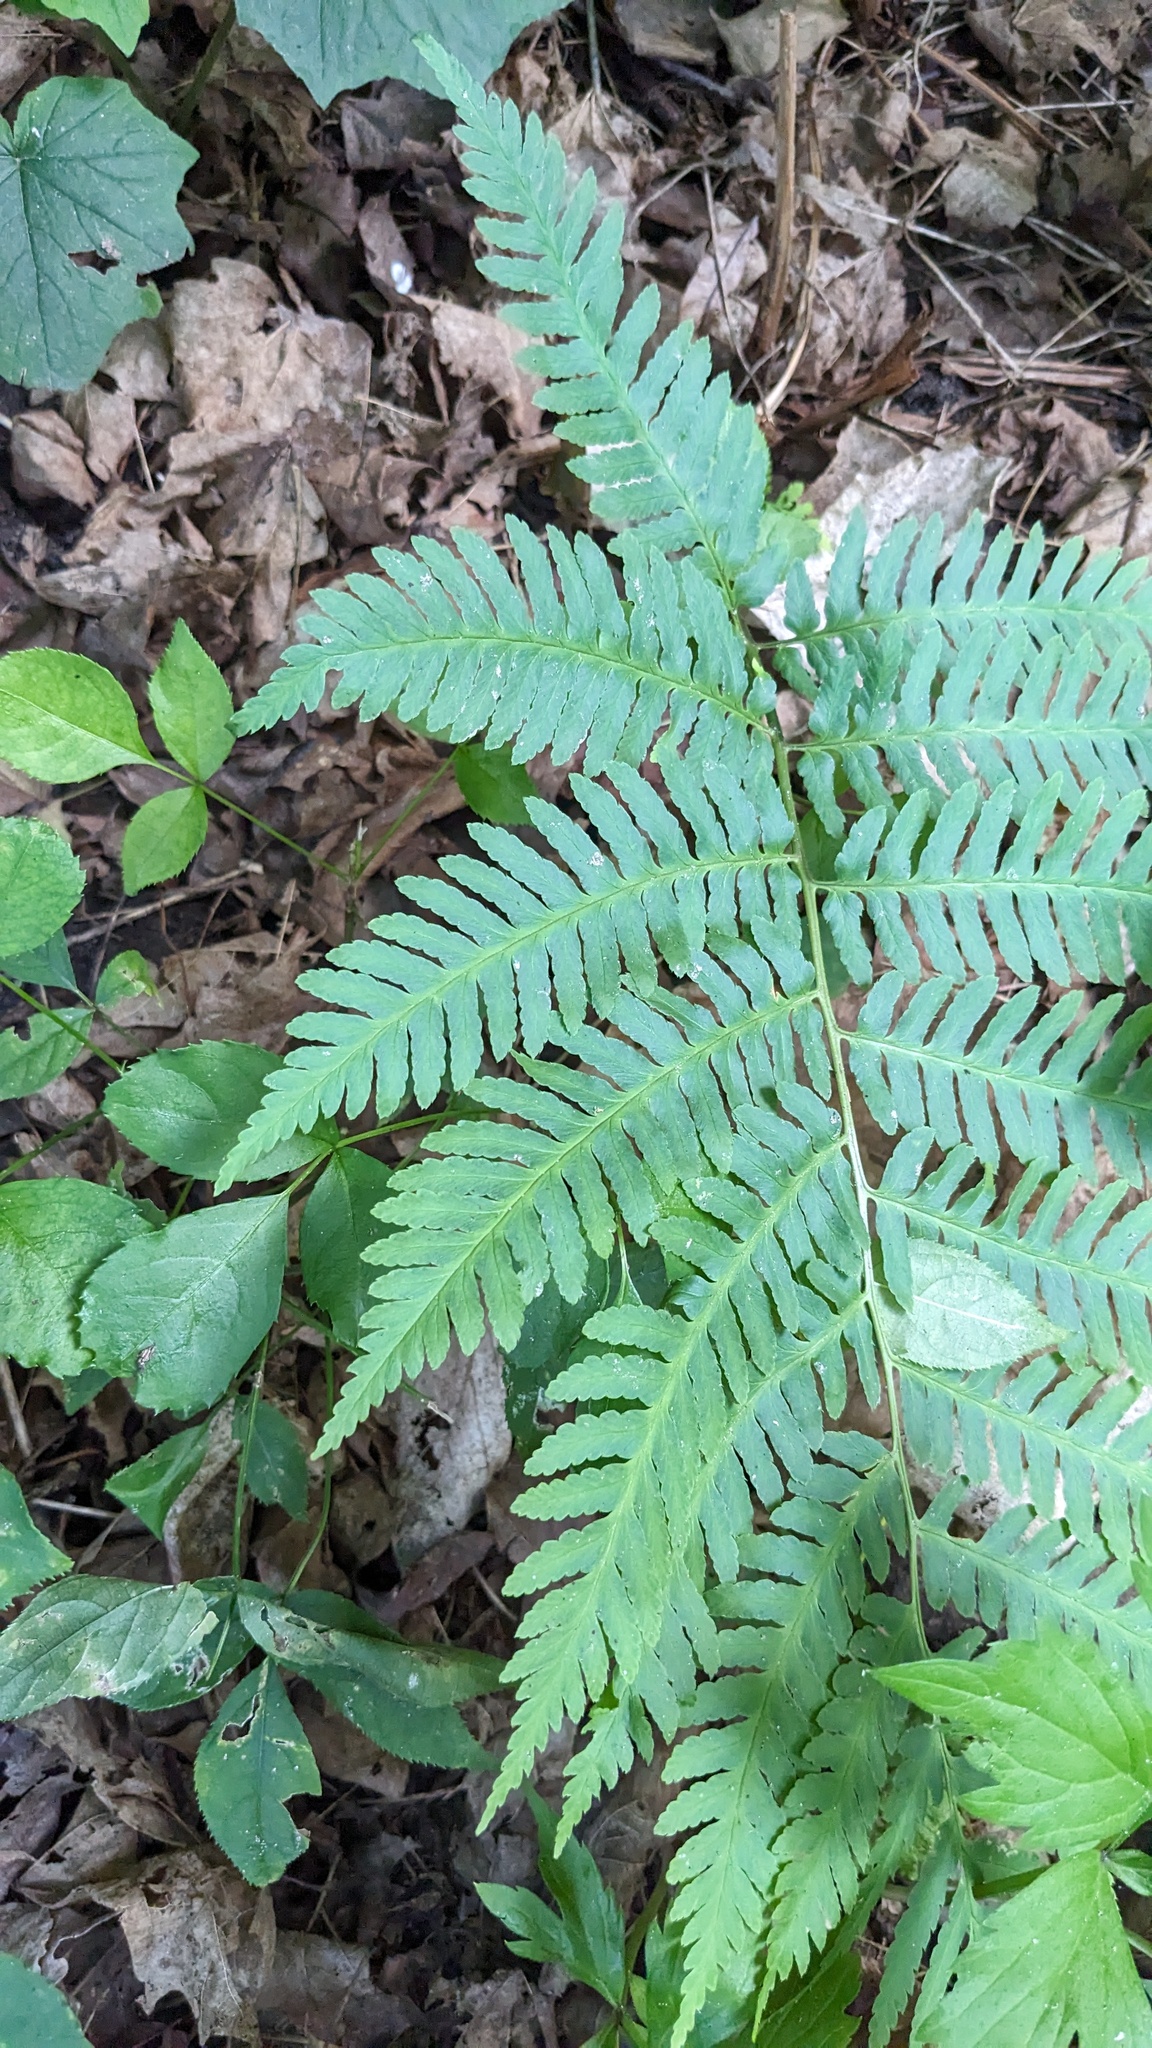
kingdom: Plantae
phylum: Tracheophyta
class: Polypodiopsida
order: Polypodiales
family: Dryopteridaceae
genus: Dryopteris
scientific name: Dryopteris goldieana
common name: Goldie's fern
